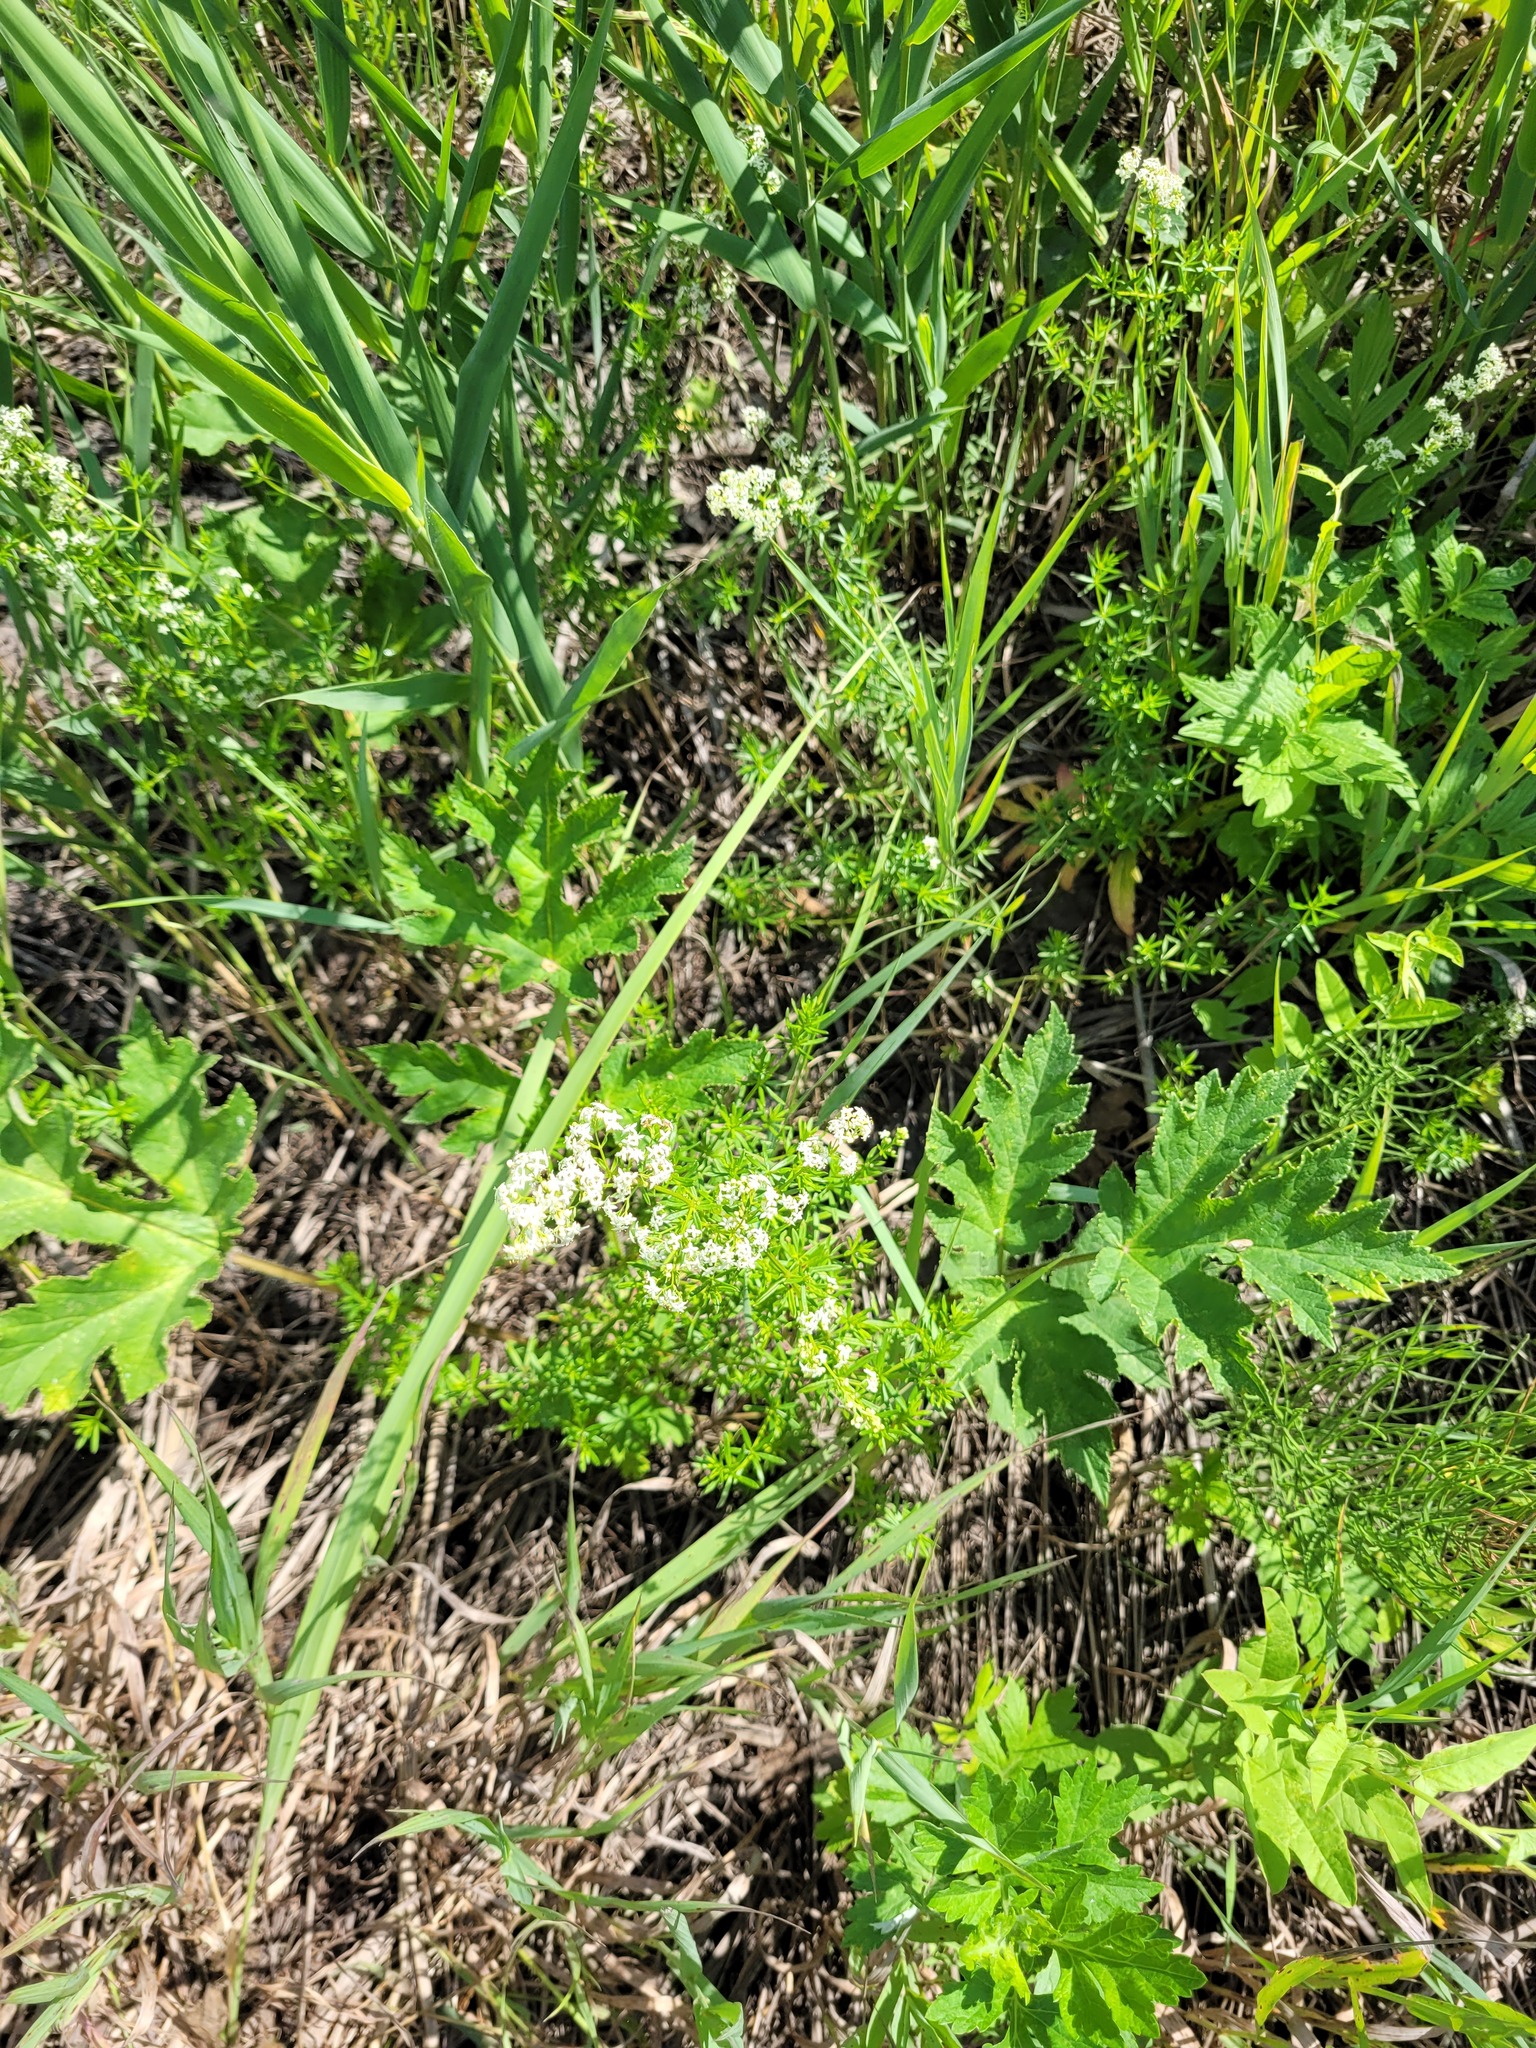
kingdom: Plantae
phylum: Tracheophyta
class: Magnoliopsida
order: Gentianales
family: Rubiaceae
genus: Galium
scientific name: Galium mollugo
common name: Hedge bedstraw
